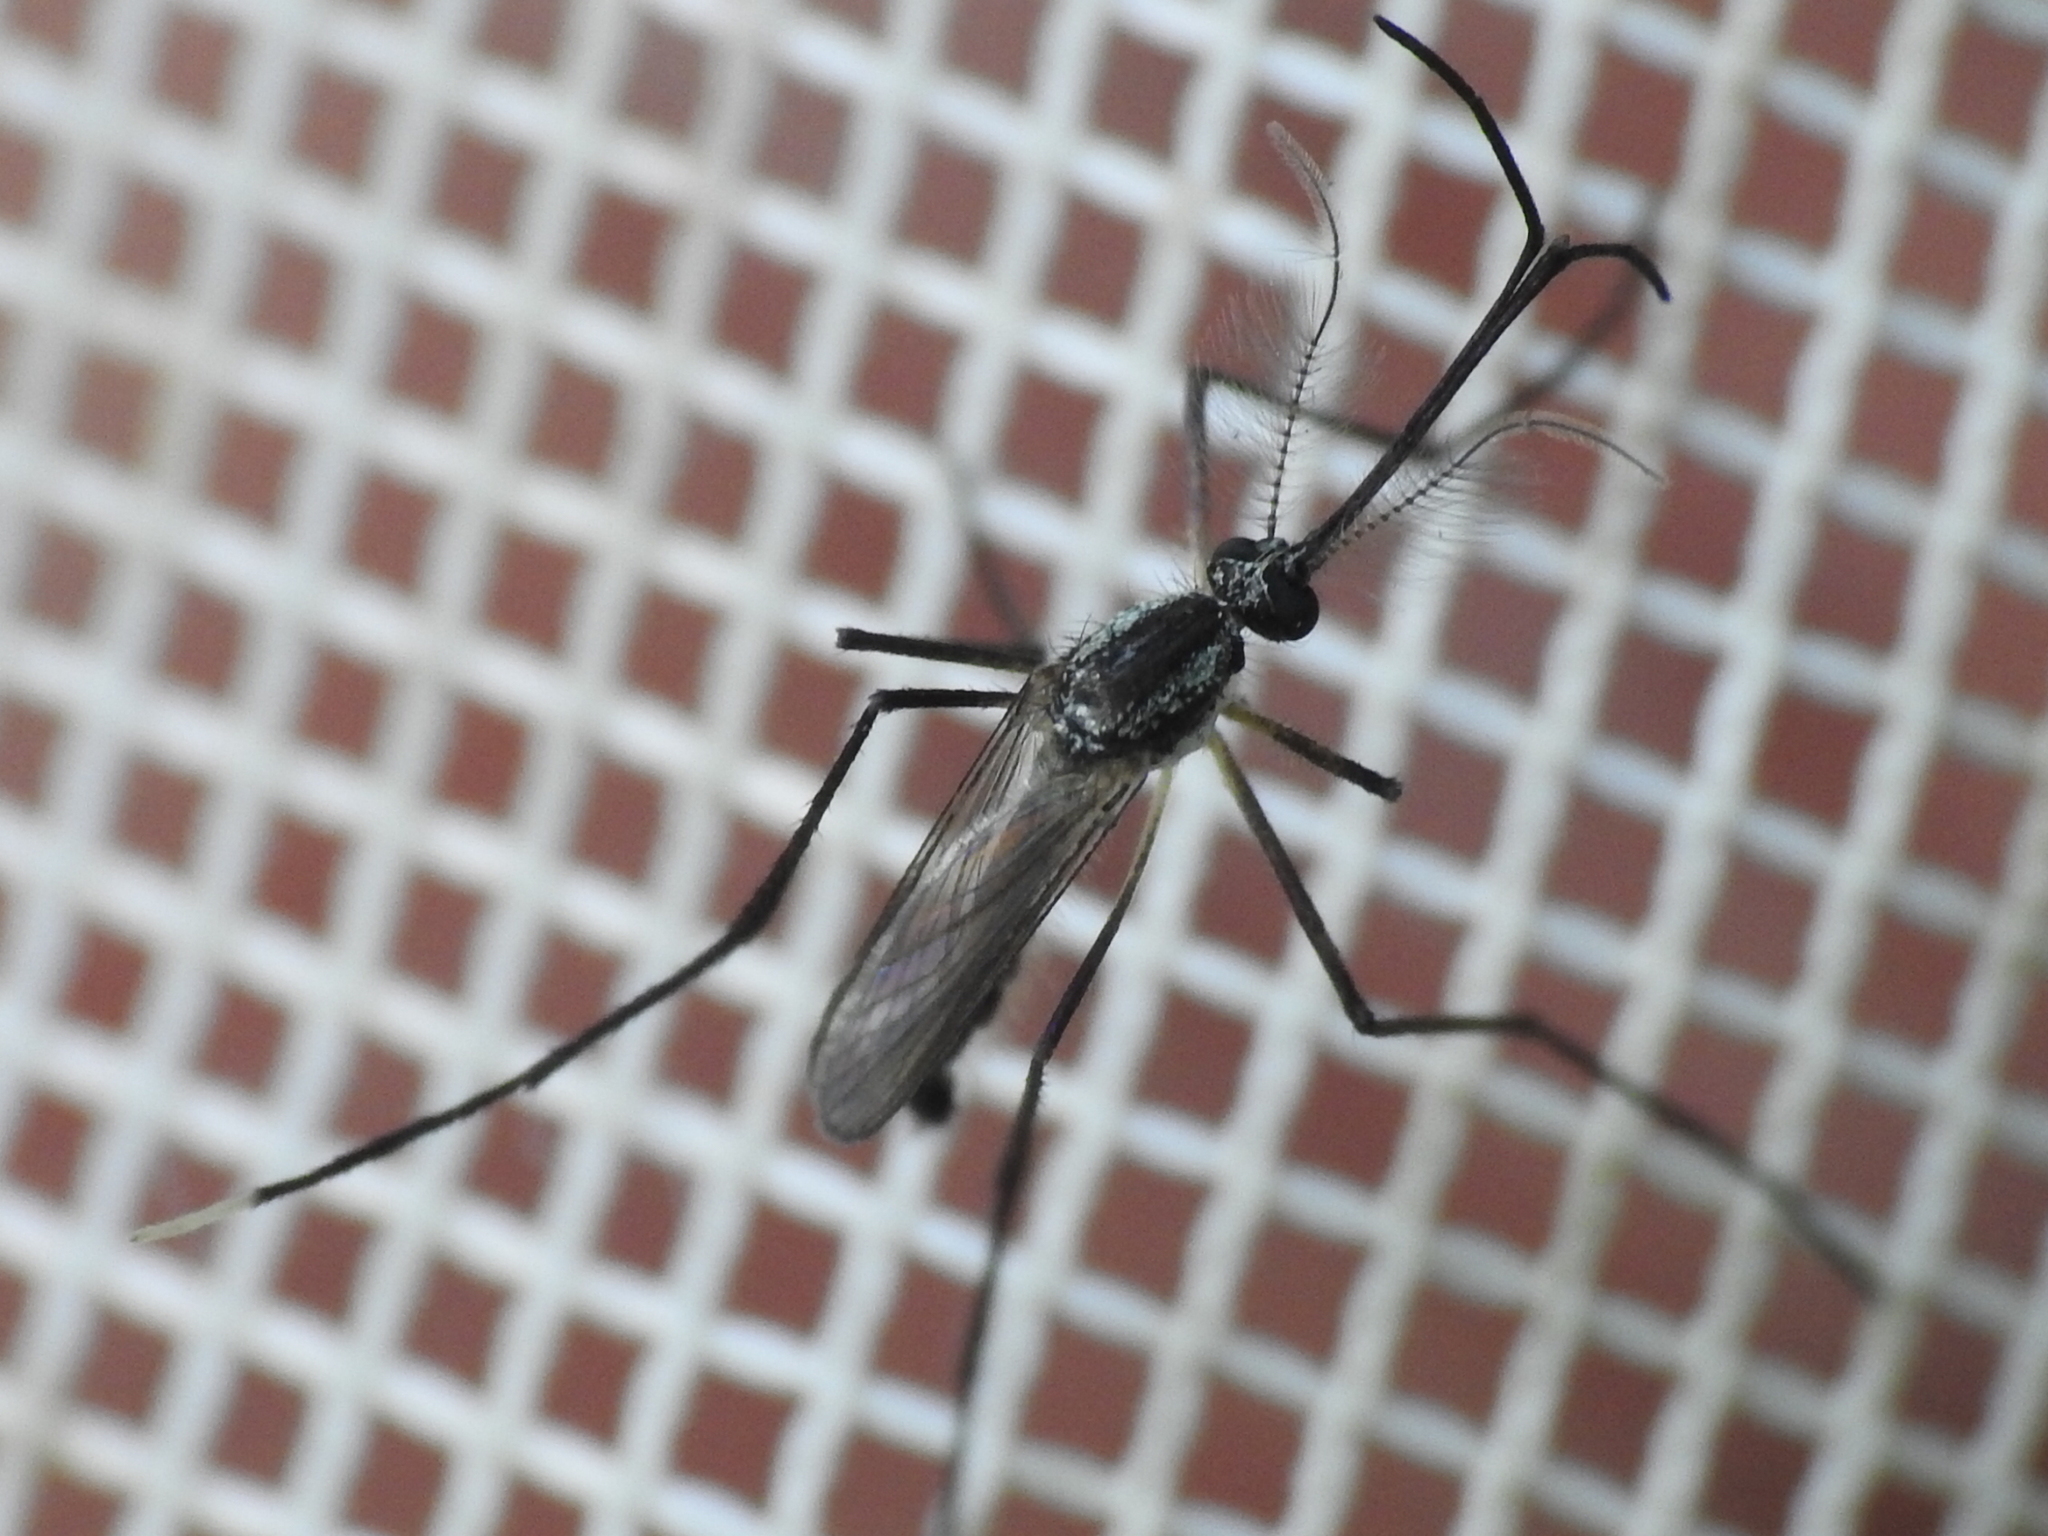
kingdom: Animalia
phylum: Arthropoda
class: Insecta
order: Diptera
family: Culicidae
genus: Psorophora
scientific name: Psorophora longipalpus
